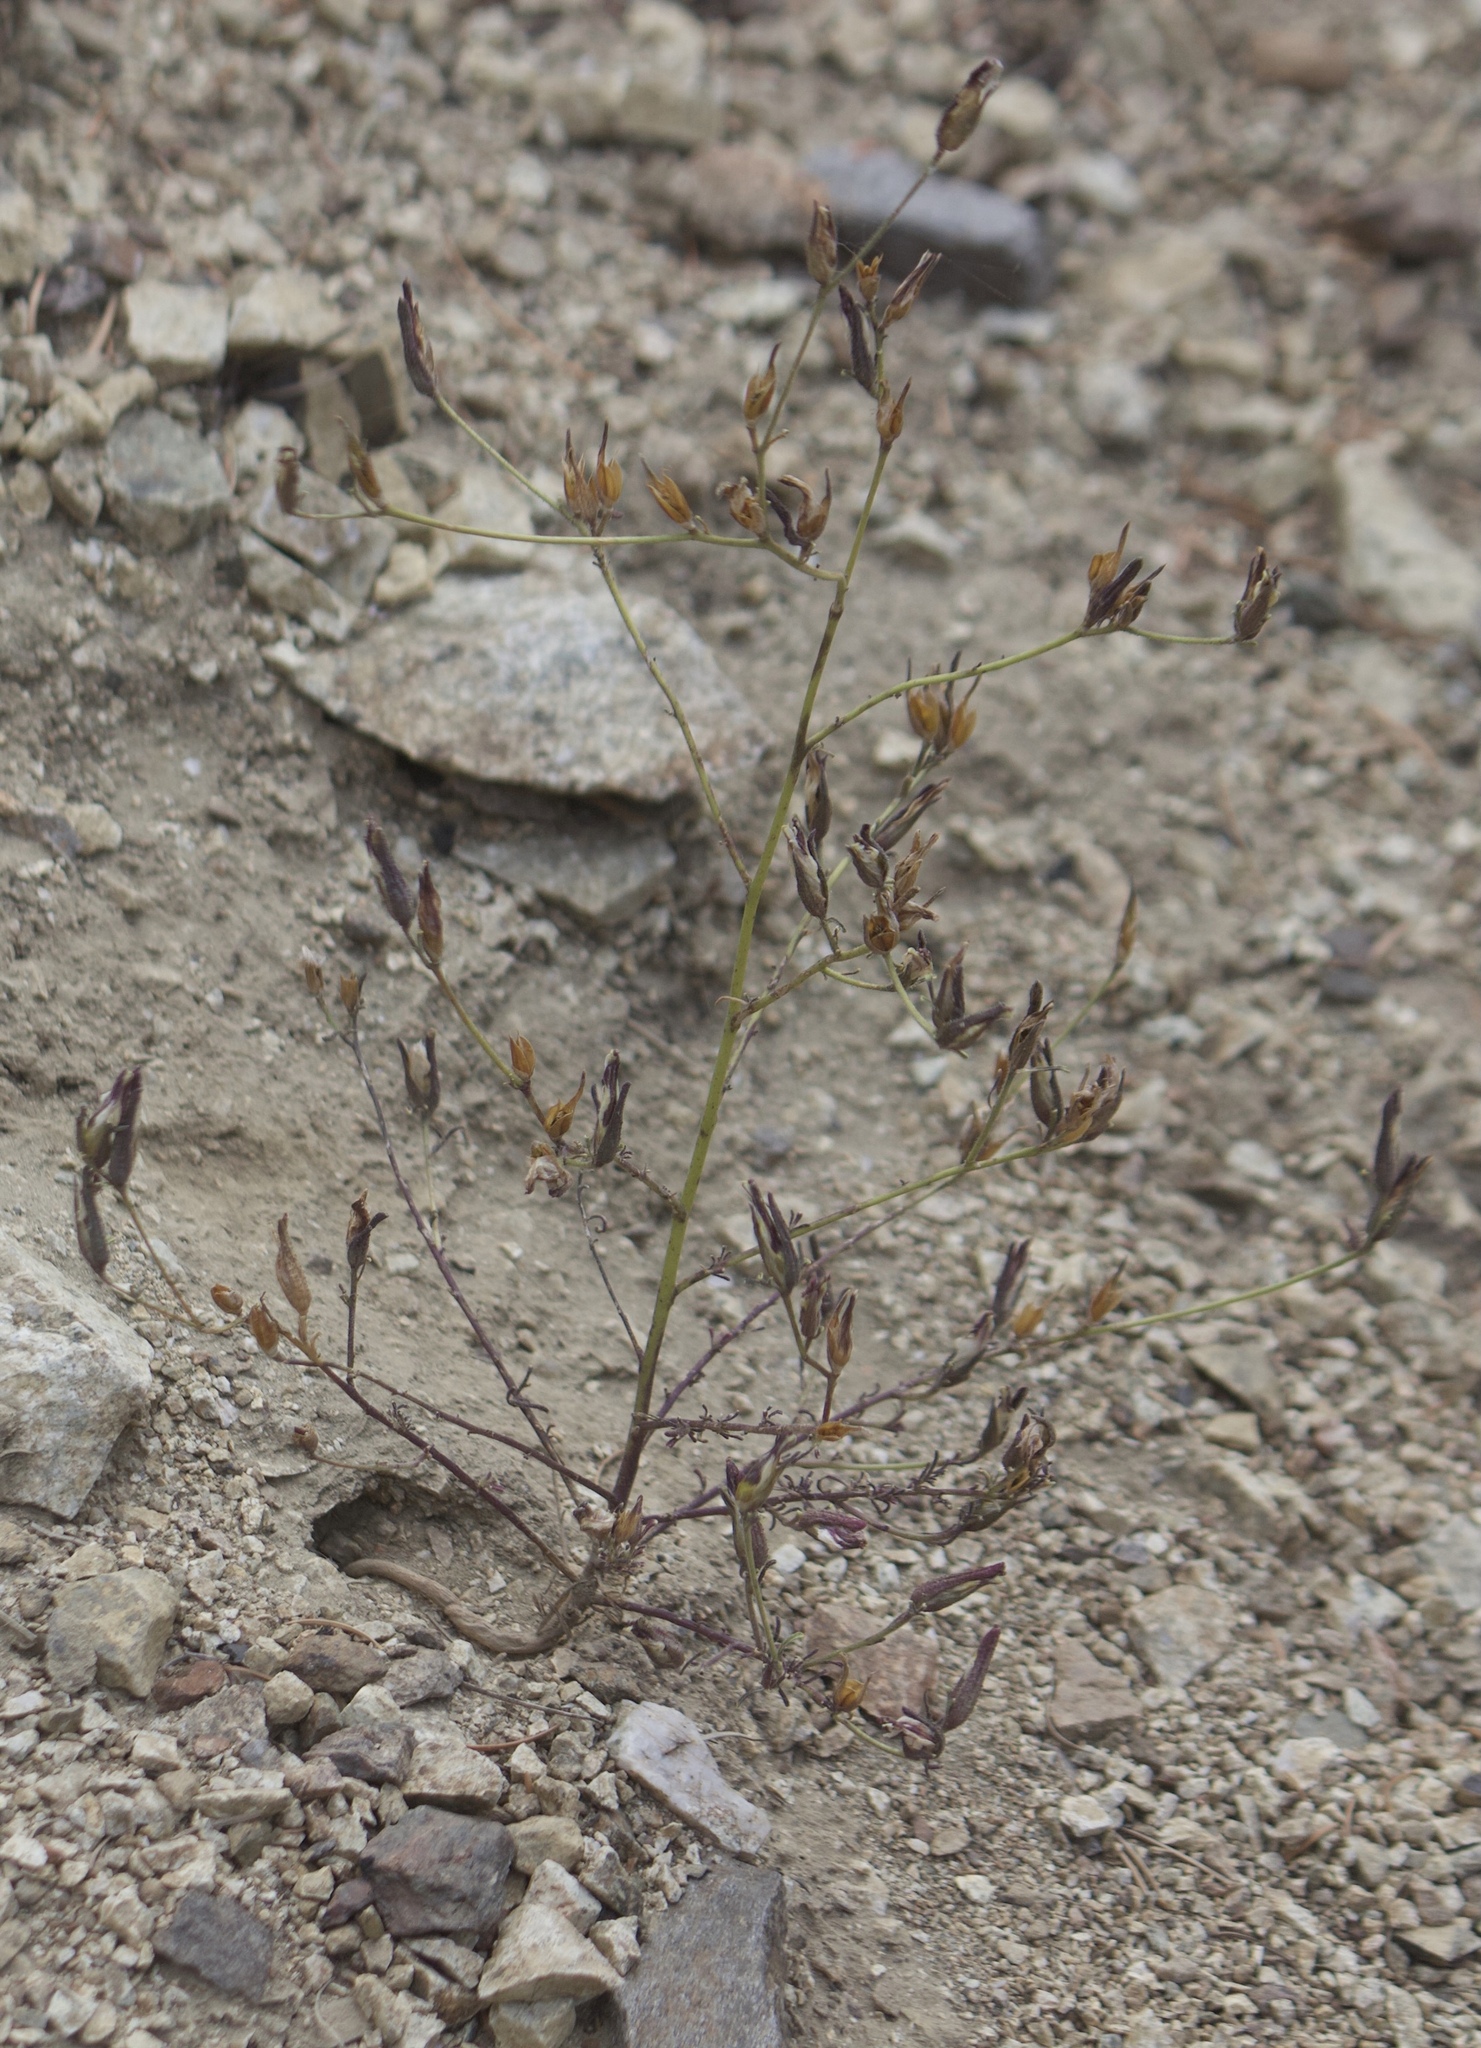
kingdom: Plantae
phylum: Tracheophyta
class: Magnoliopsida
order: Lamiales
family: Orobanchaceae
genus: Cordylanthus
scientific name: Cordylanthus nevinii
